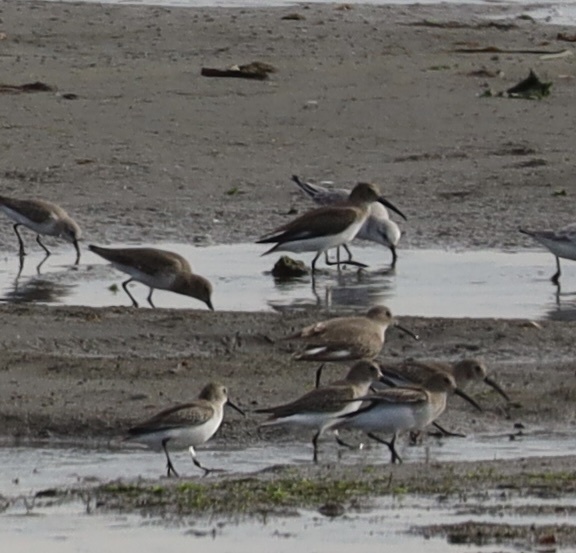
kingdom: Animalia
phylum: Chordata
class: Aves
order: Charadriiformes
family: Scolopacidae
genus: Calidris
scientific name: Calidris alpina
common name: Dunlin
